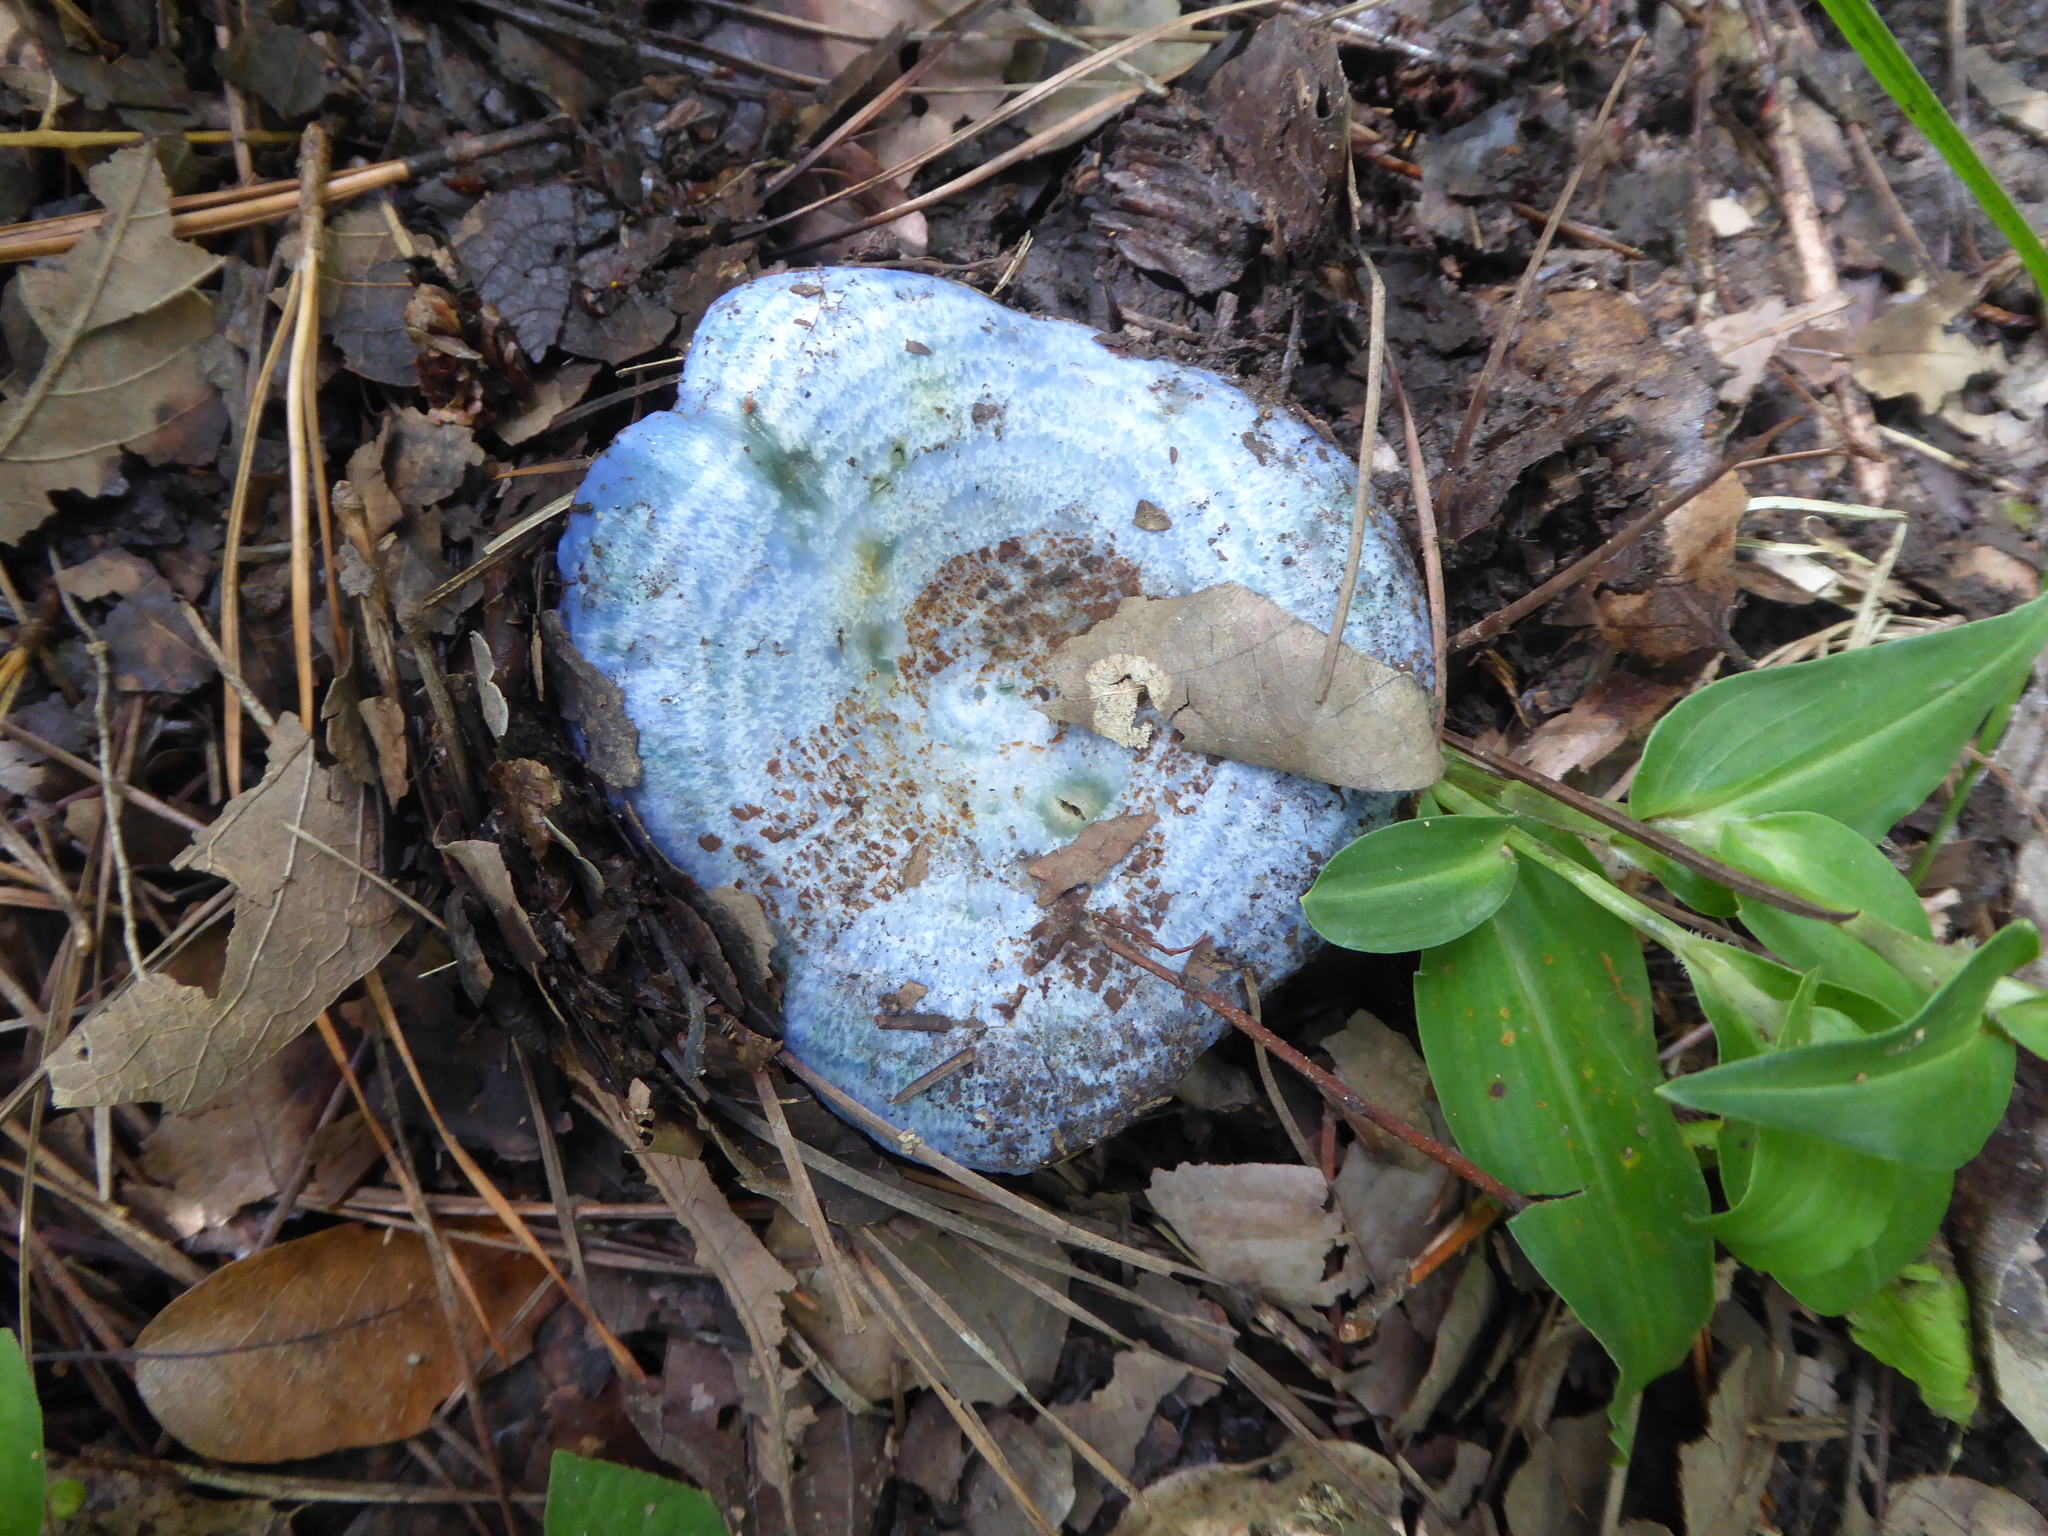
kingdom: Fungi
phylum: Basidiomycota
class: Agaricomycetes
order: Russulales
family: Russulaceae
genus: Lactarius
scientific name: Lactarius indigo
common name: Indigo milk cap
